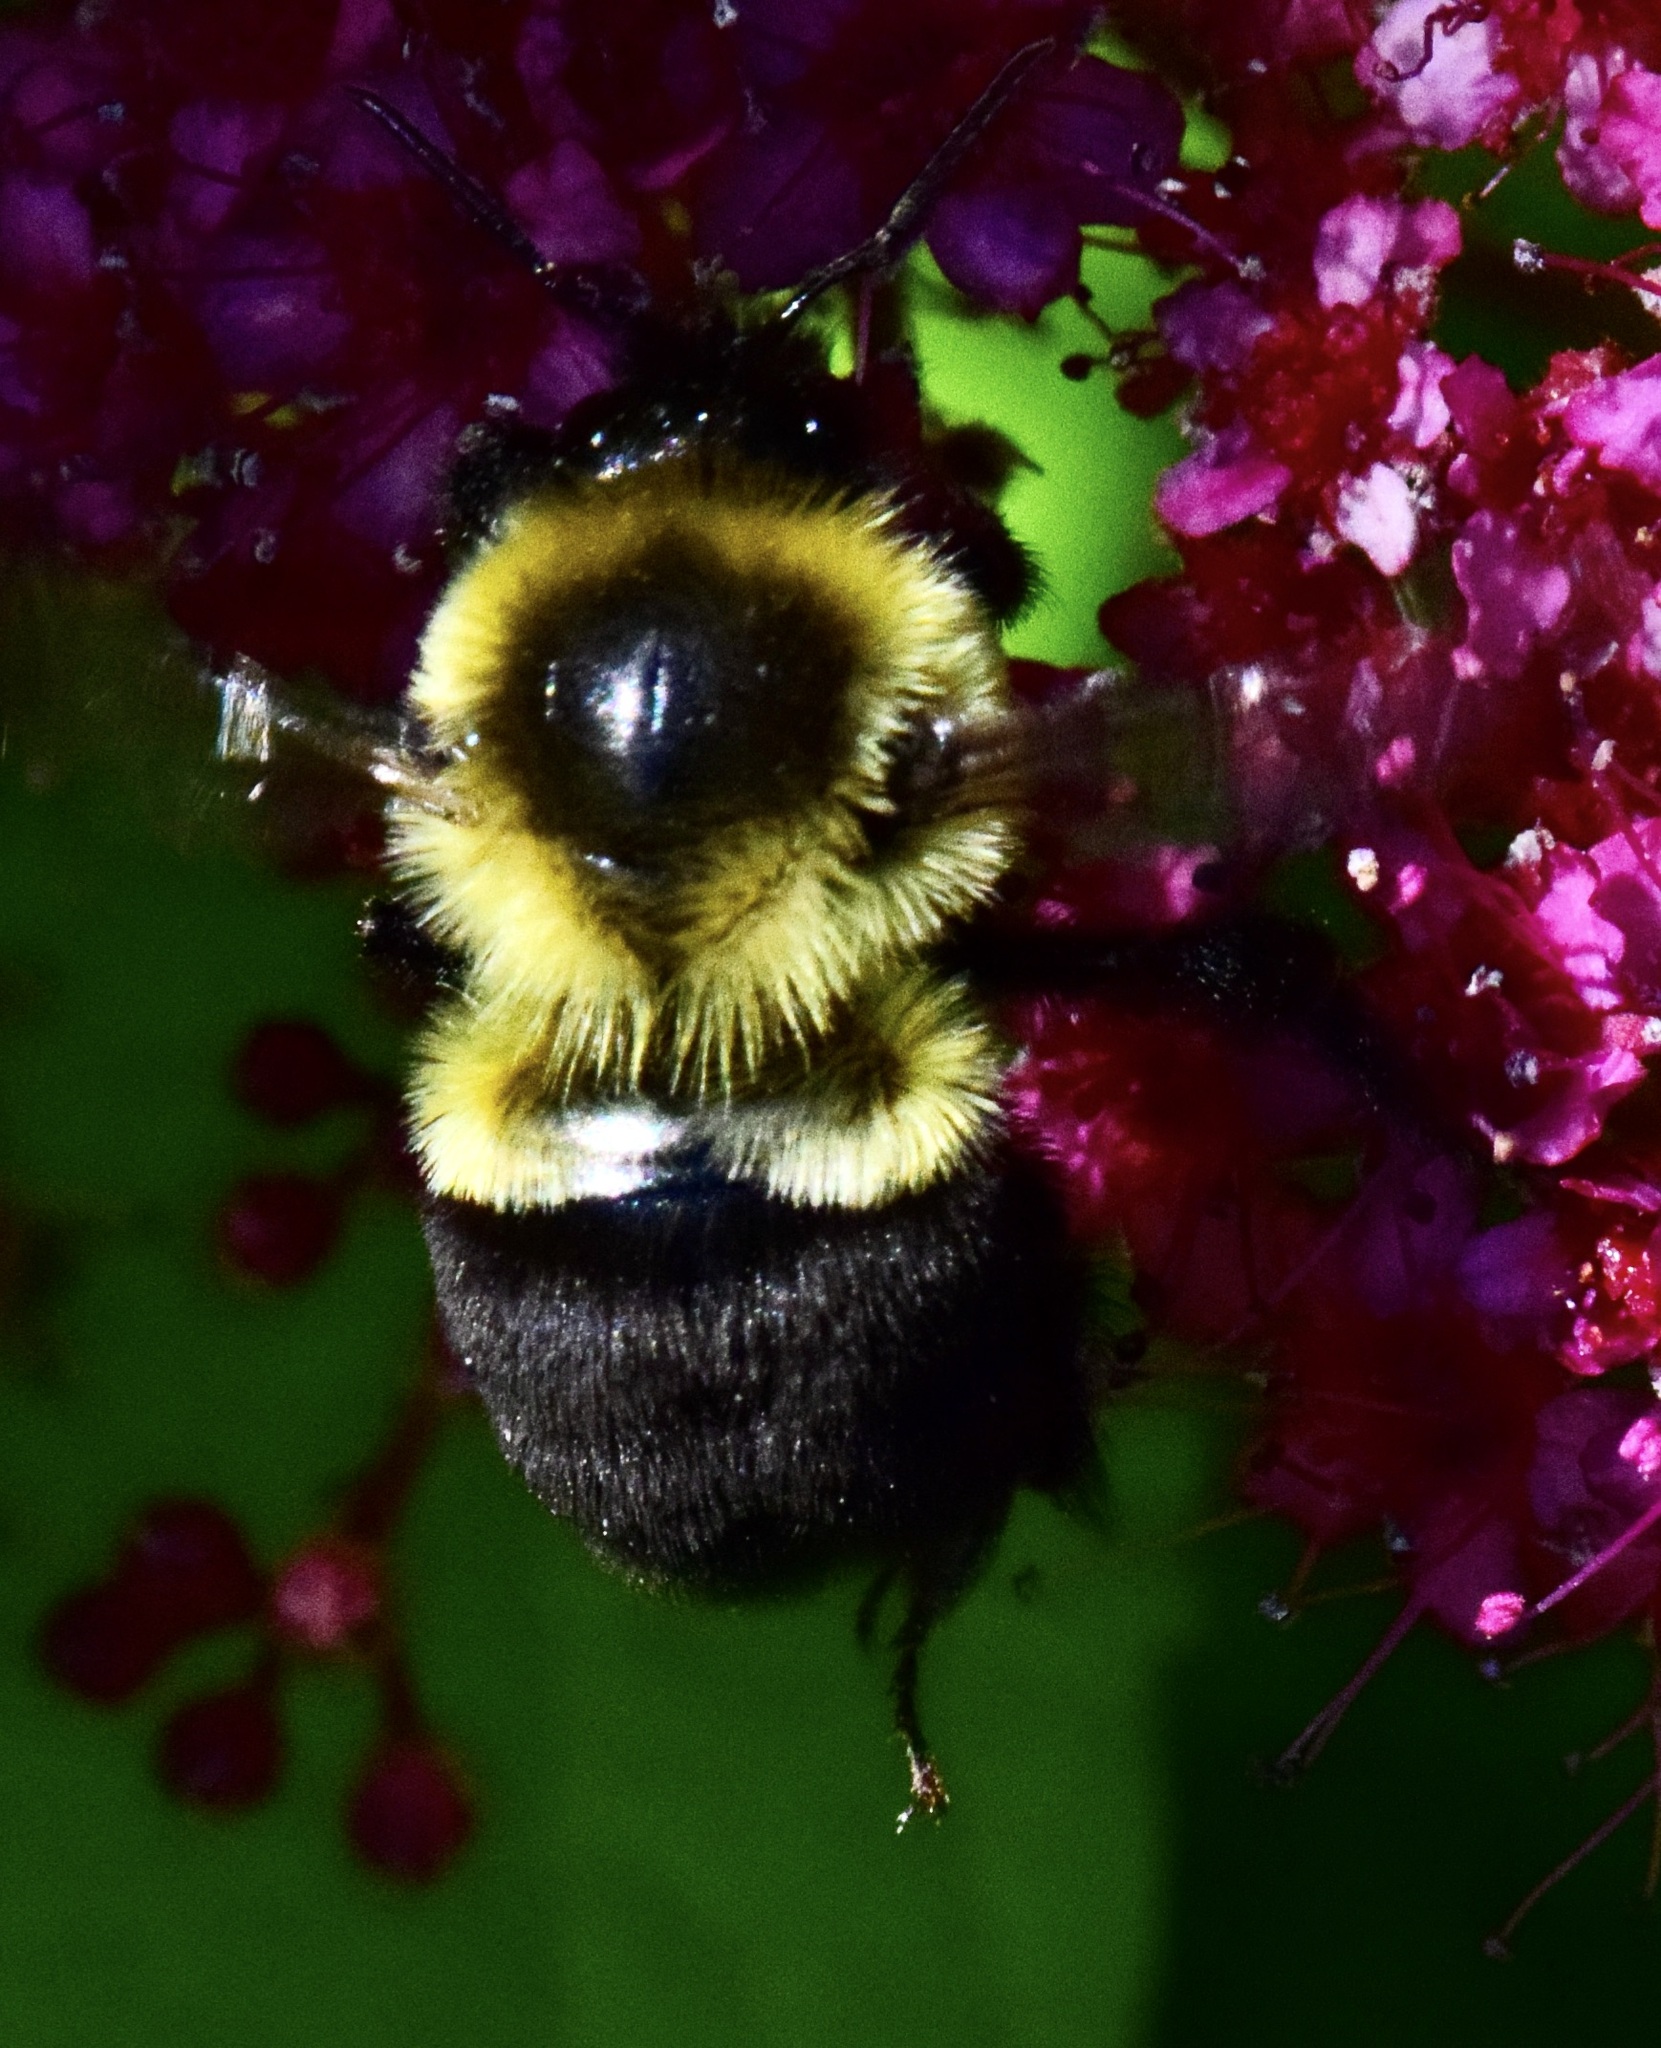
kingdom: Animalia
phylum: Arthropoda
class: Insecta
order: Hymenoptera
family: Apidae
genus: Bombus
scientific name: Bombus impatiens
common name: Common eastern bumble bee
